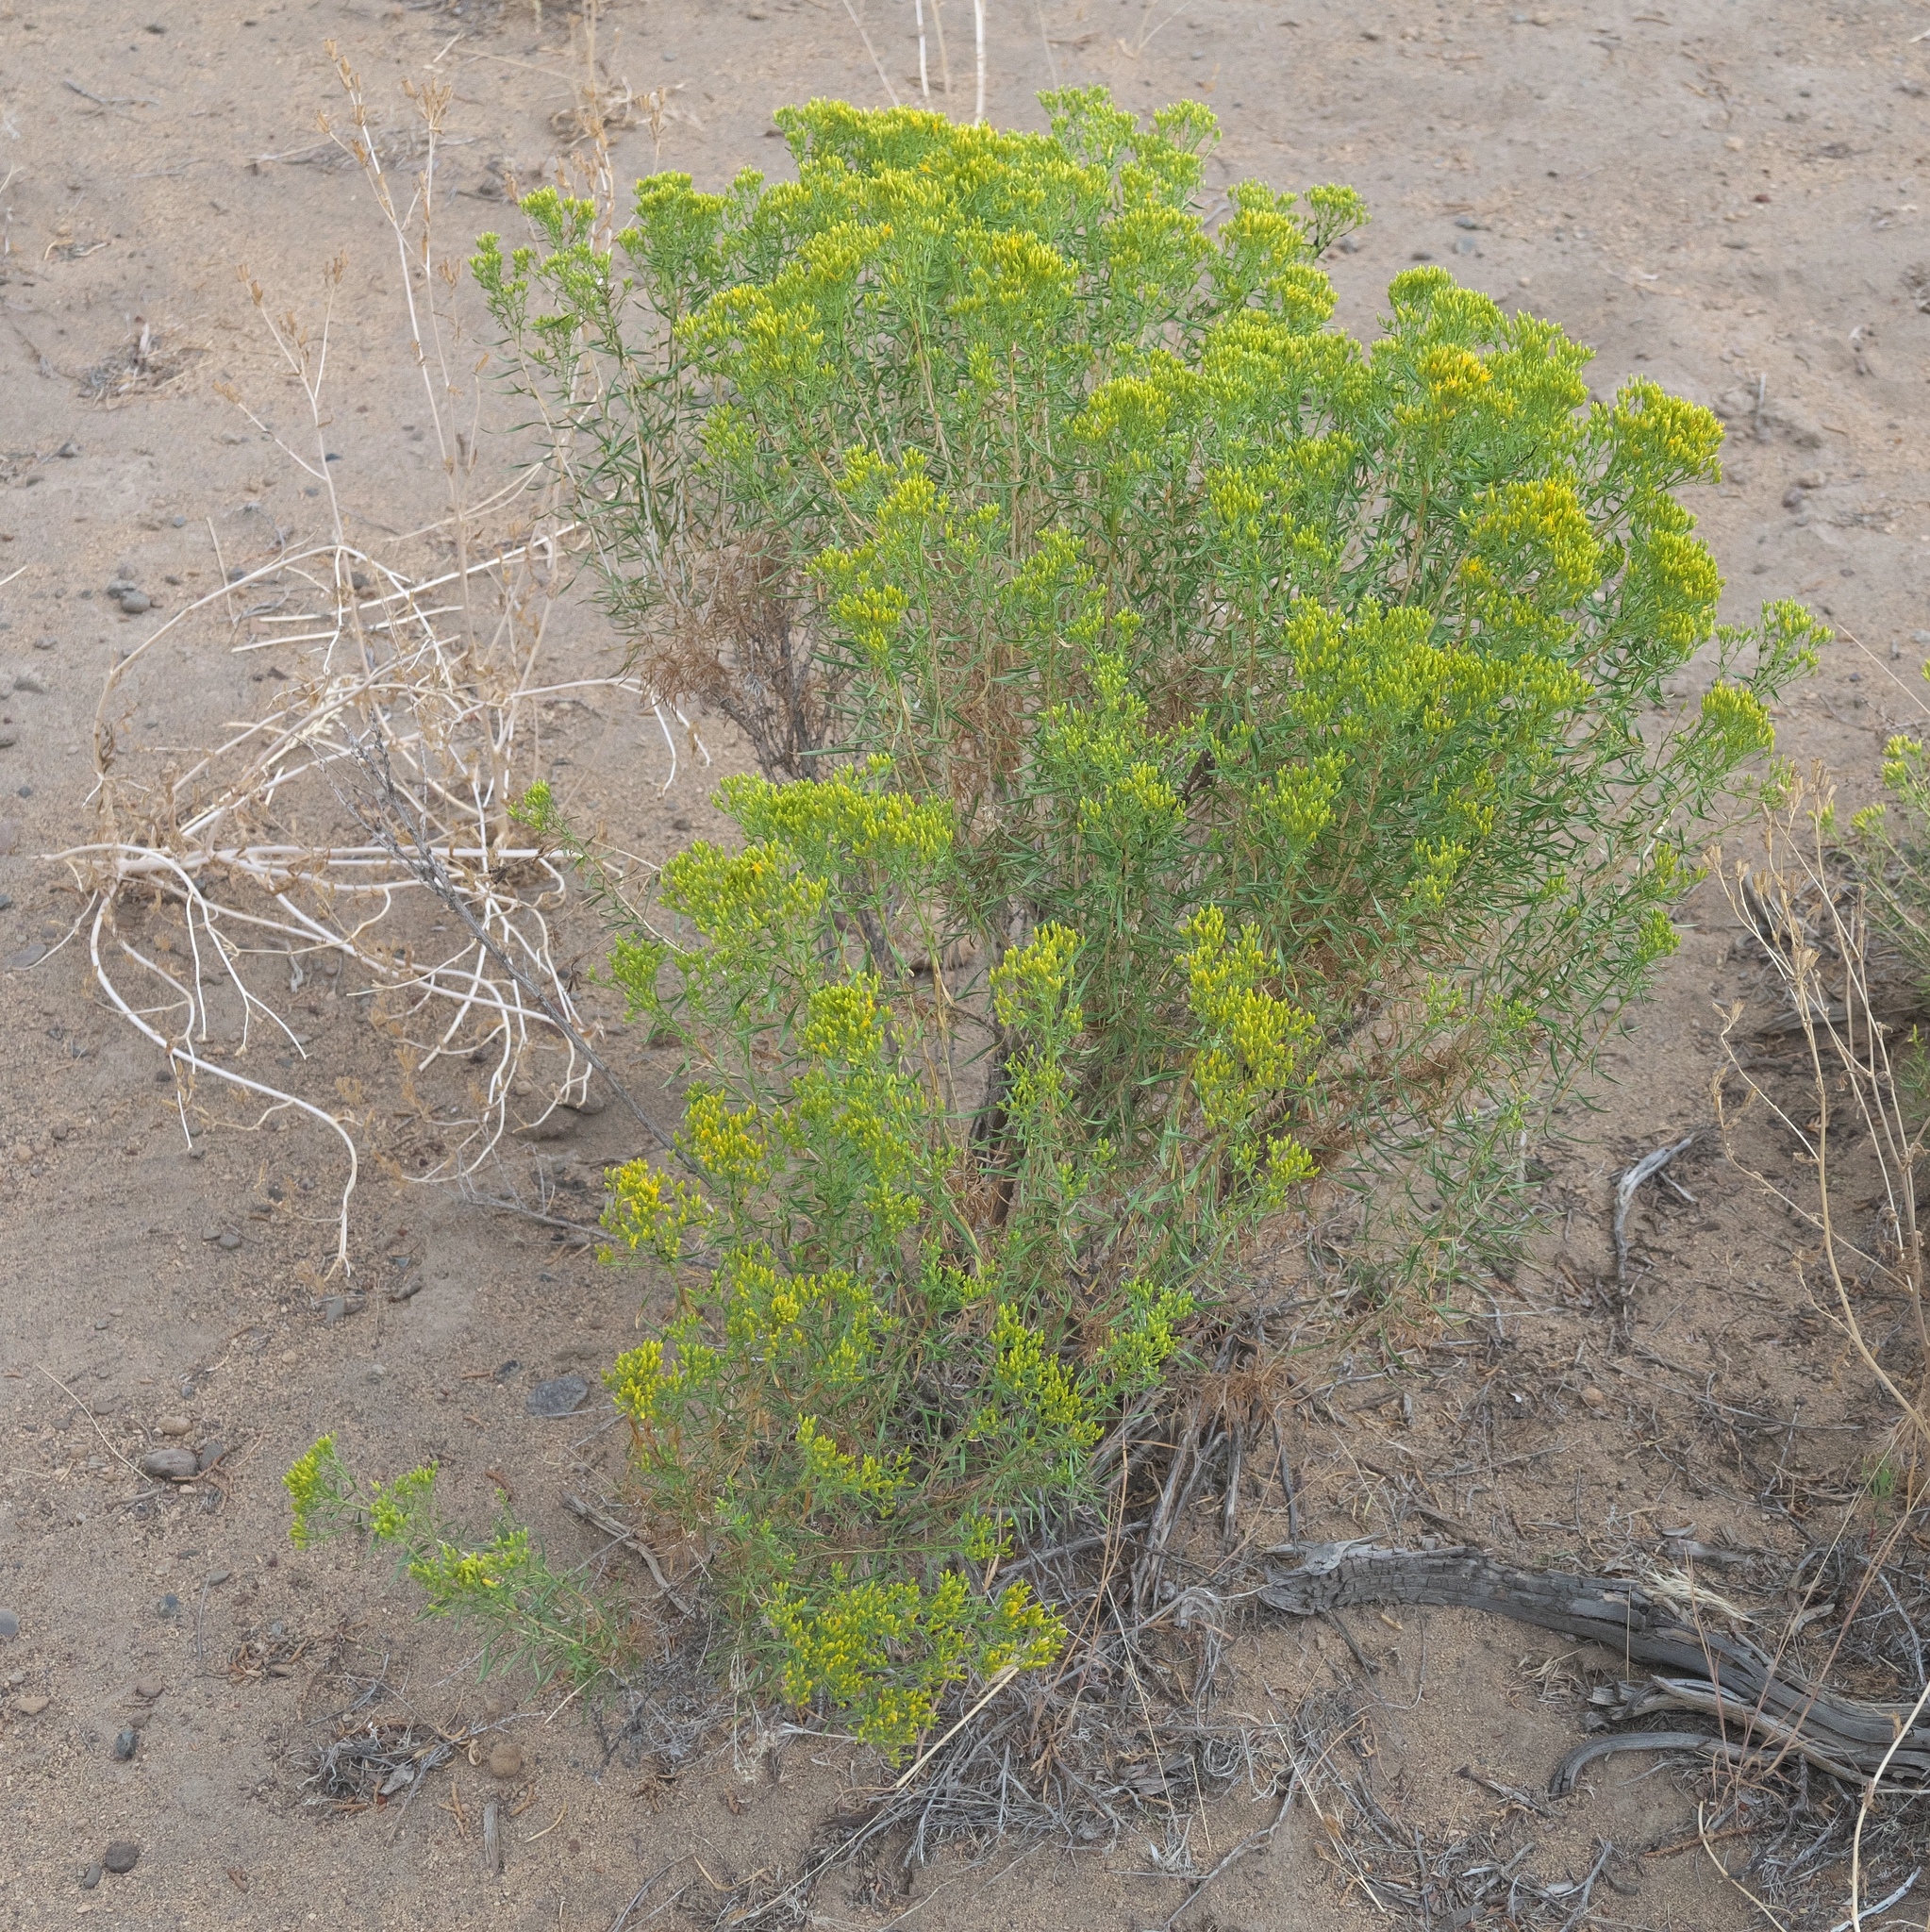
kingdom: Plantae
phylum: Tracheophyta
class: Magnoliopsida
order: Asterales
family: Asteraceae
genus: Chrysothamnus
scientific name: Chrysothamnus viscidiflorus
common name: Yellow rabbitbrush
